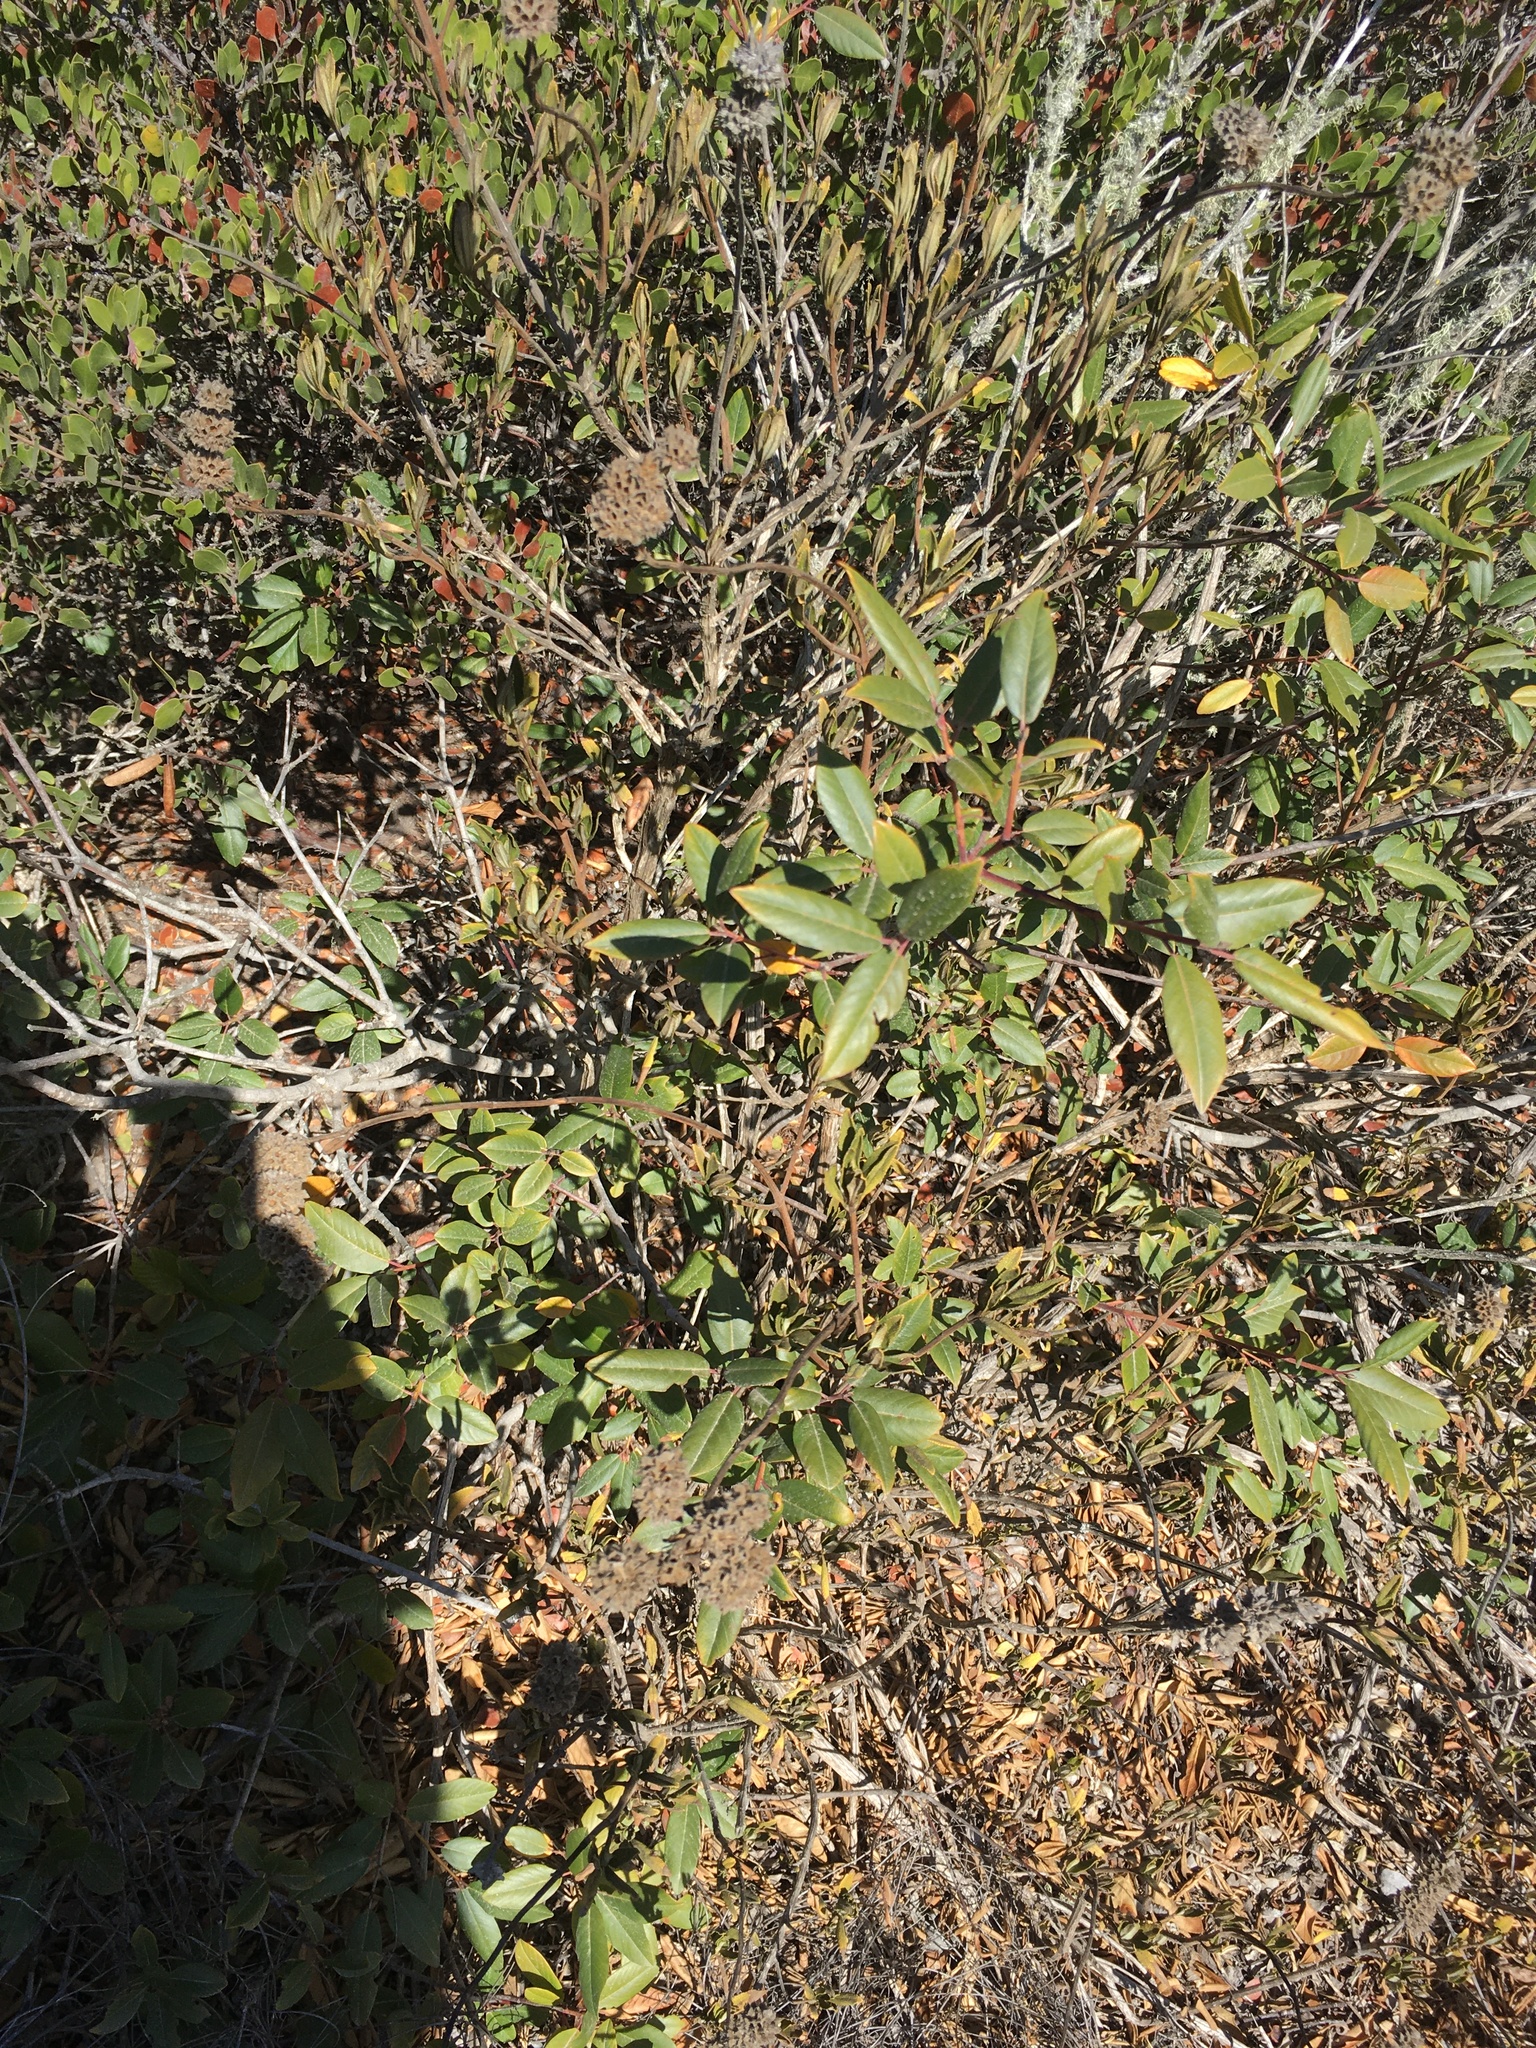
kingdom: Plantae
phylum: Tracheophyta
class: Magnoliopsida
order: Rosales
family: Rhamnaceae
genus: Frangula
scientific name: Frangula californica
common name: California buckthorn
